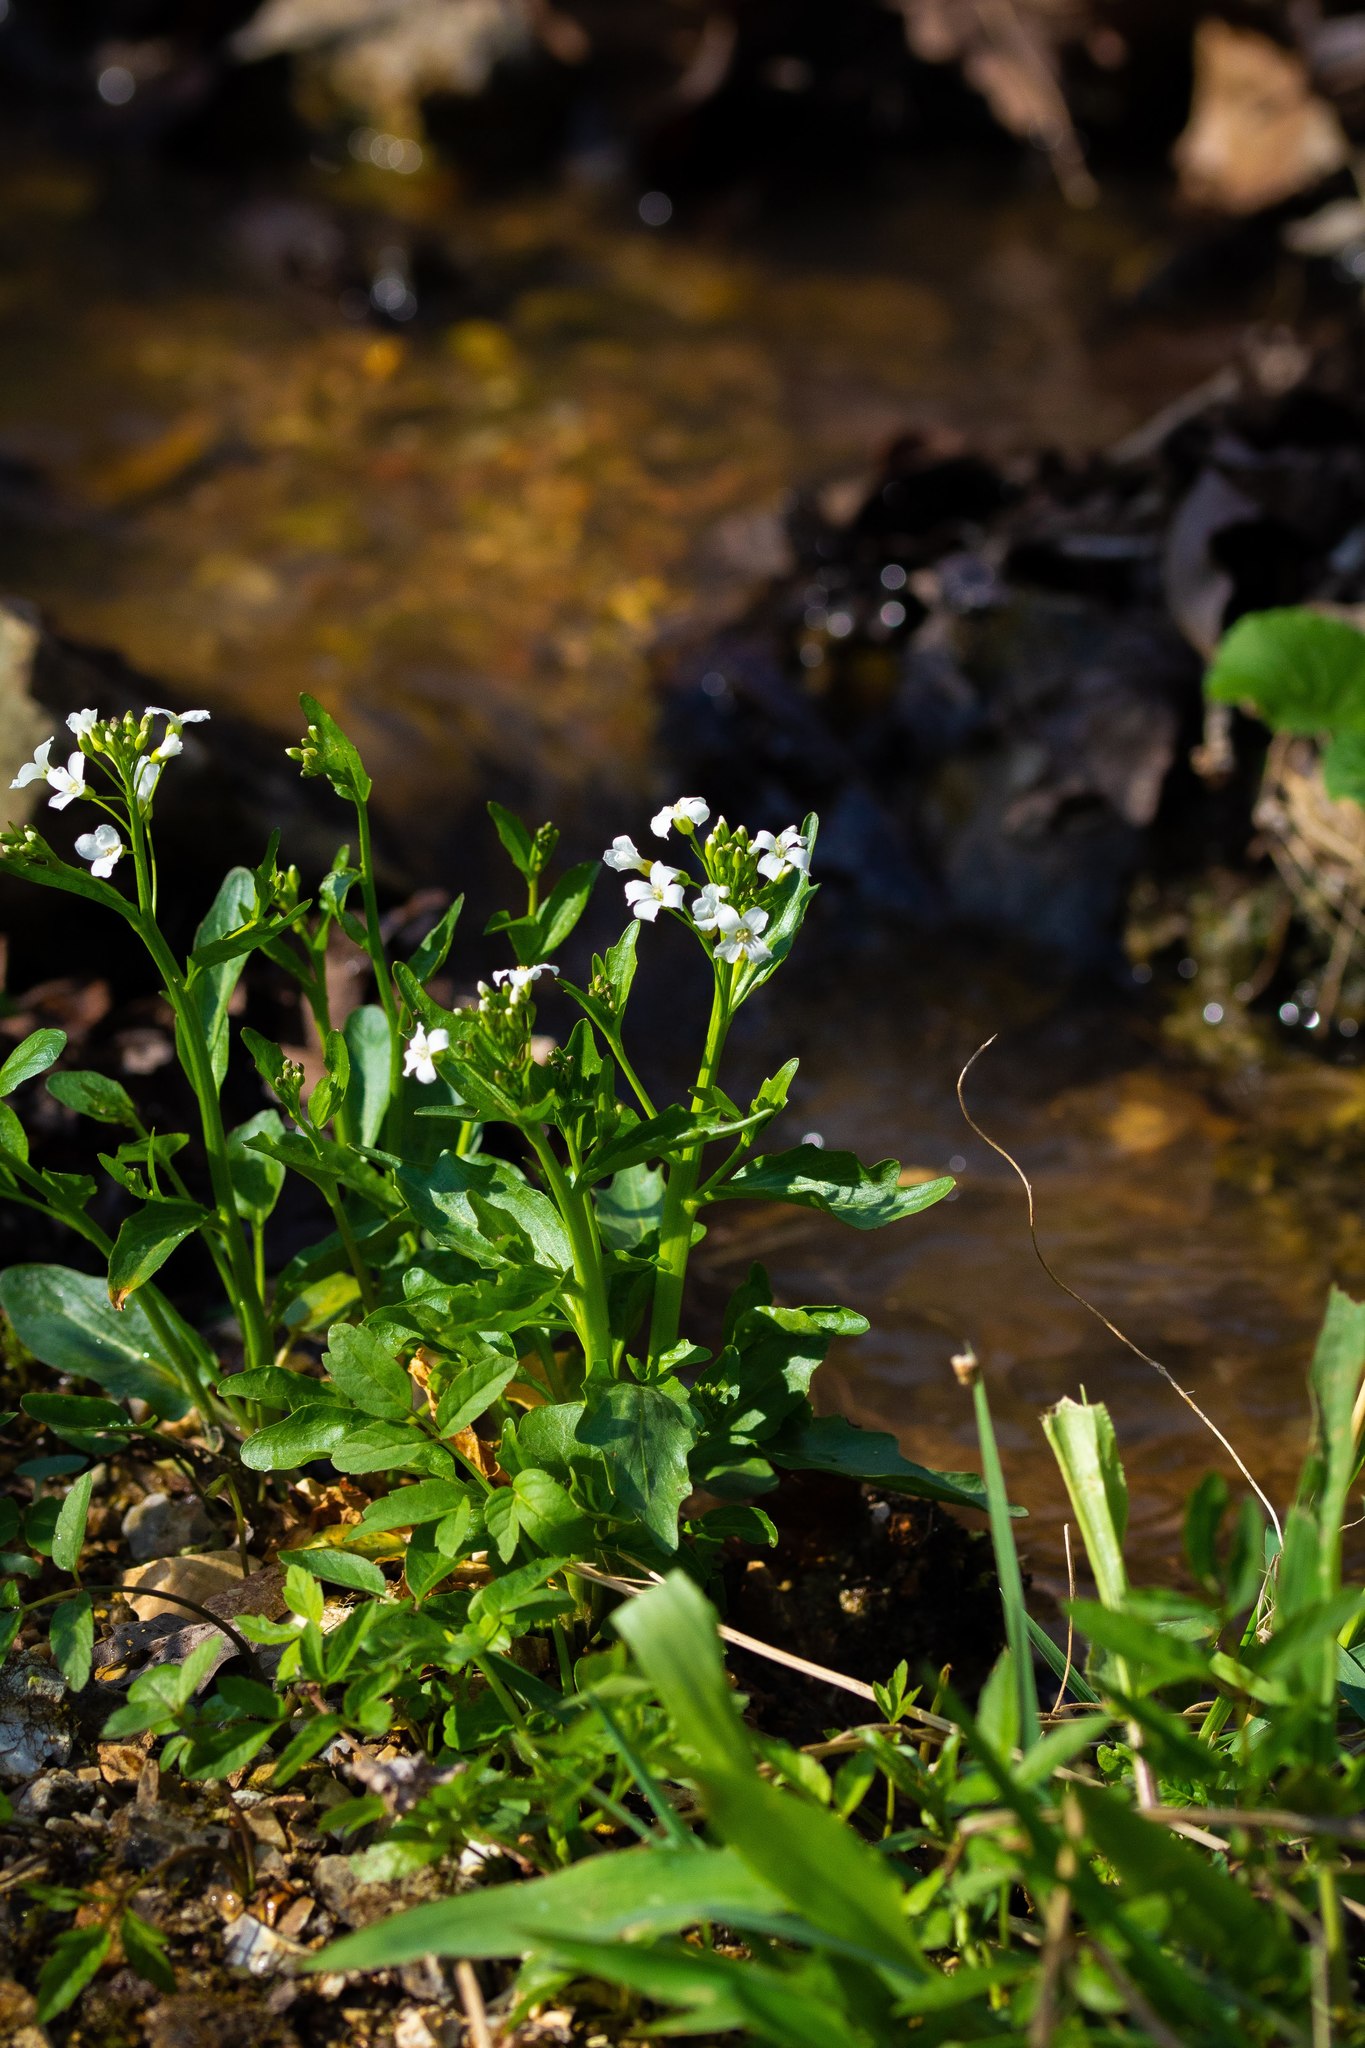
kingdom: Plantae
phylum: Tracheophyta
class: Magnoliopsida
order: Brassicales
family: Brassicaceae
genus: Cardamine
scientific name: Cardamine bulbosa
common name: Spring cress
